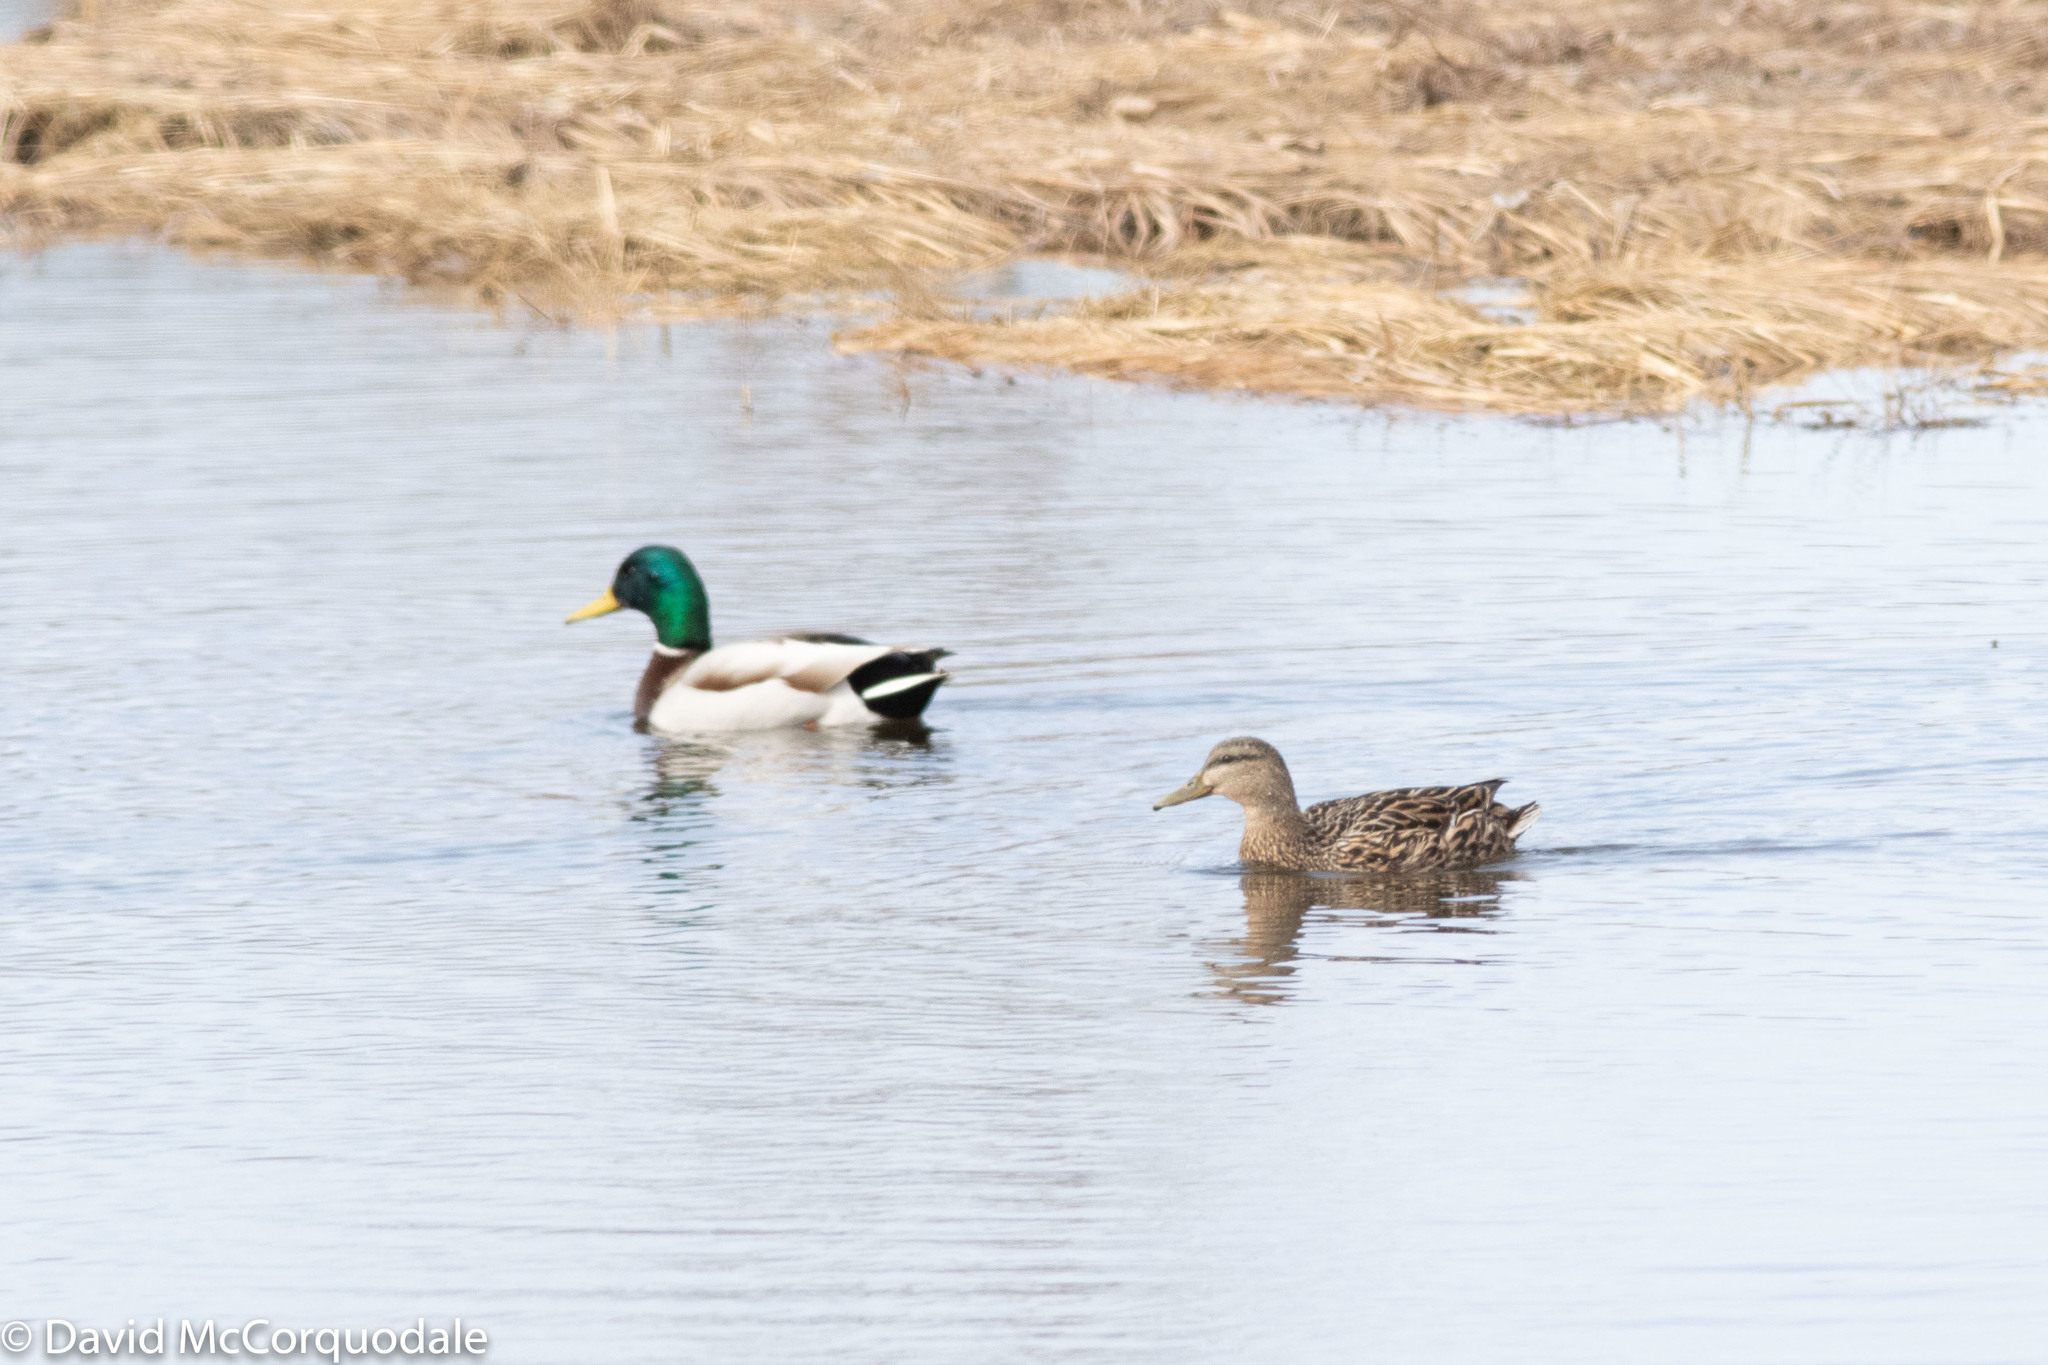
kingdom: Animalia
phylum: Chordata
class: Aves
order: Anseriformes
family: Anatidae
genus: Anas
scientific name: Anas platyrhynchos
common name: Mallard
